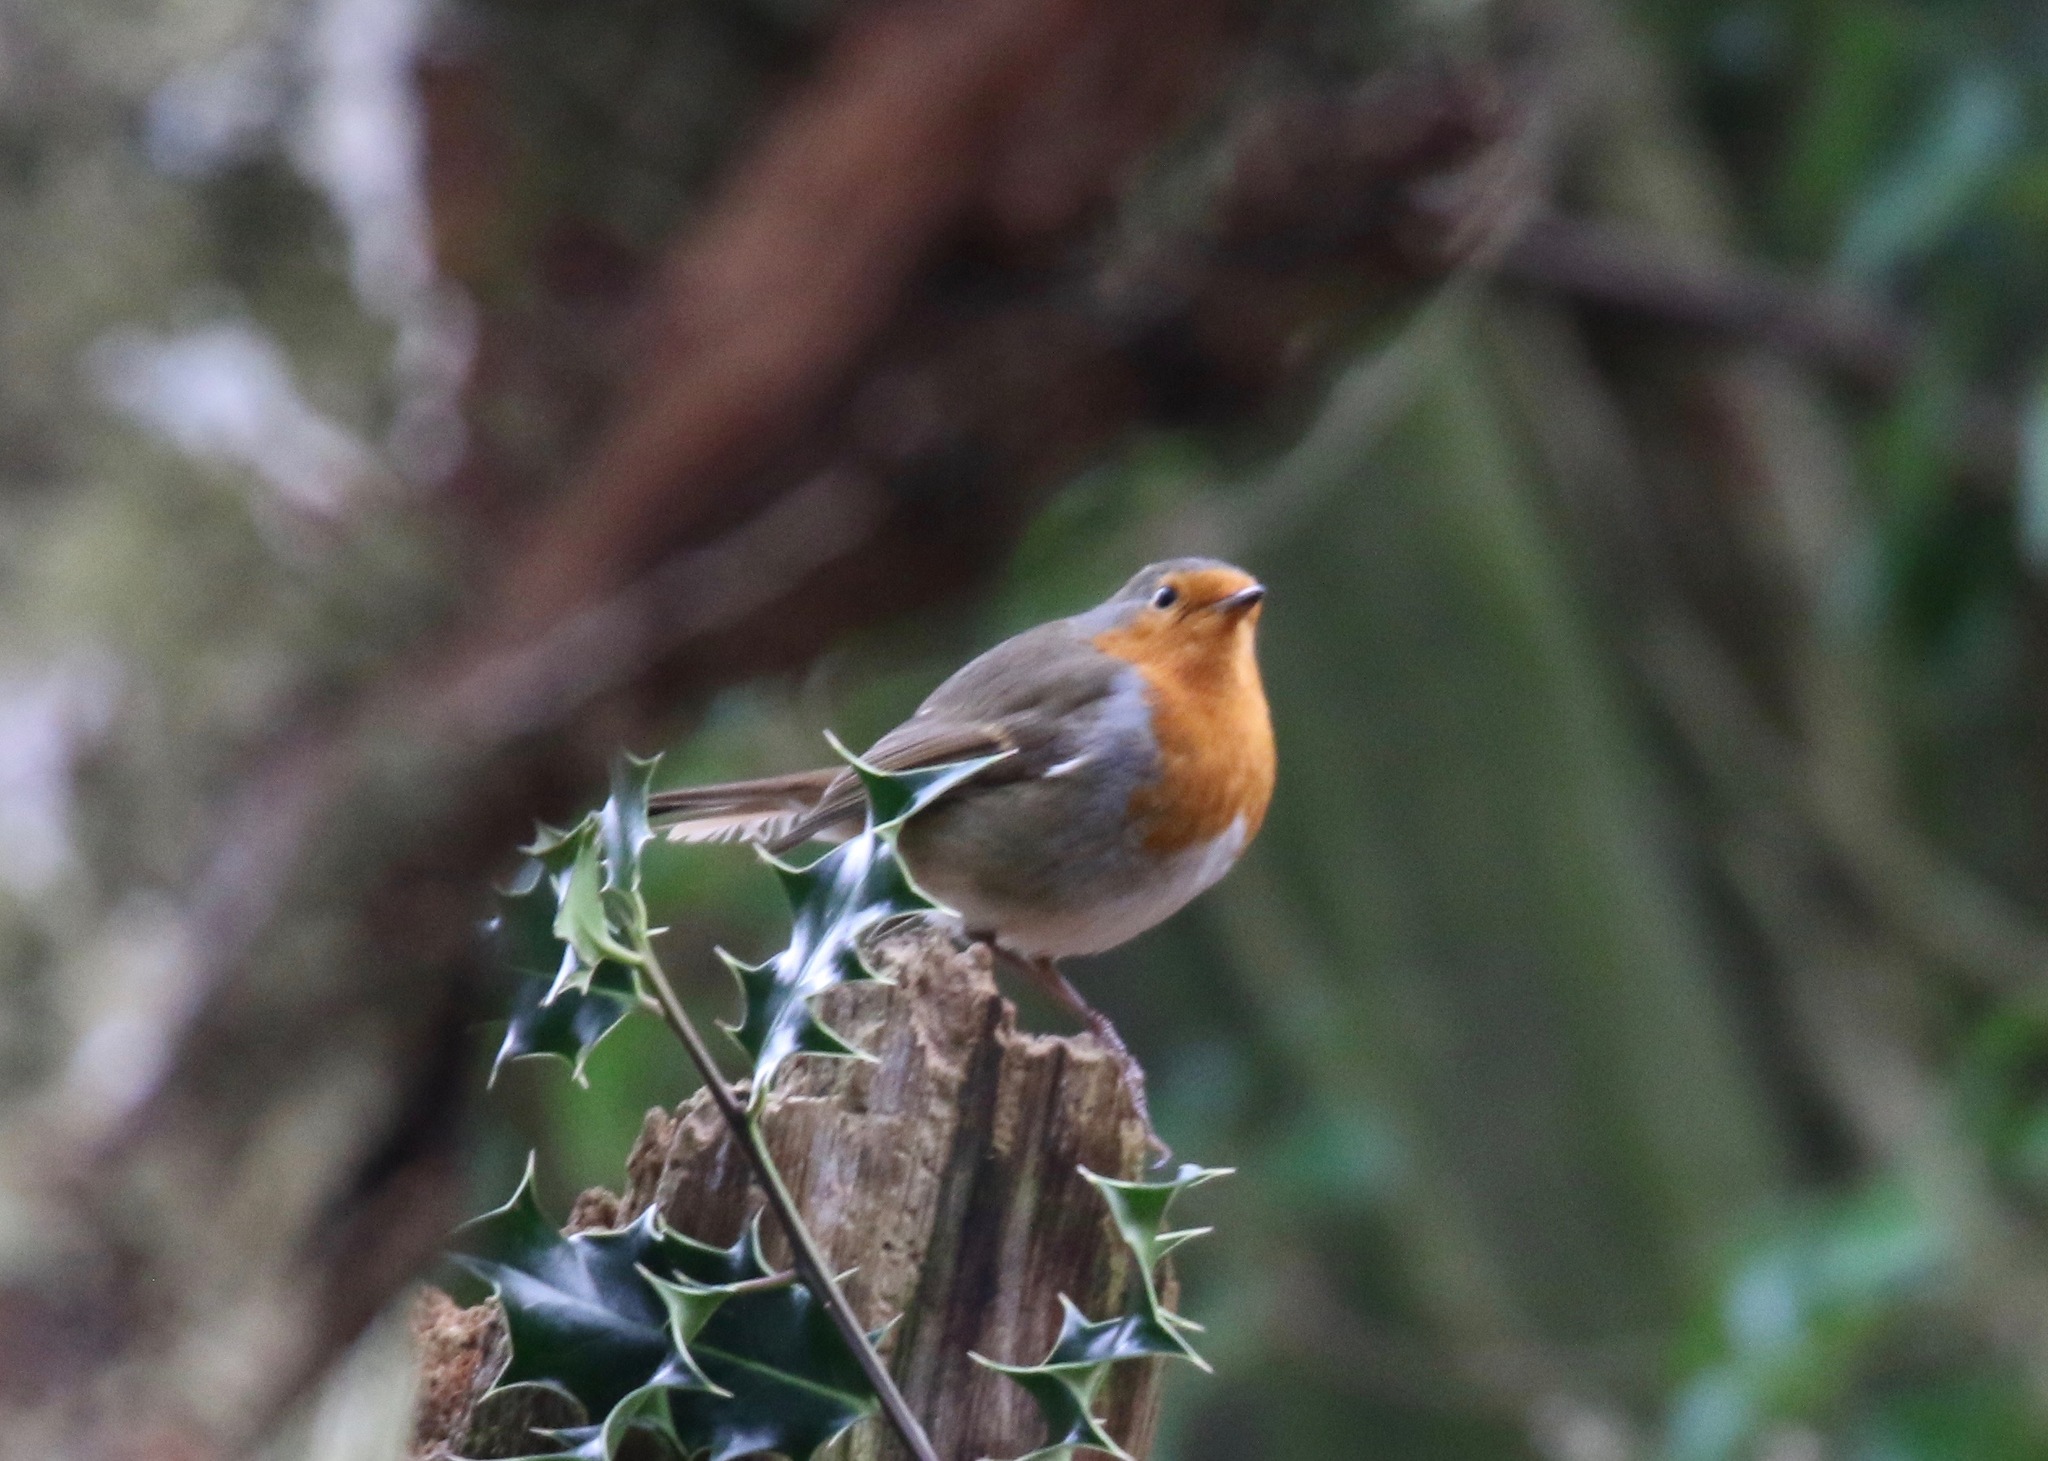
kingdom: Animalia
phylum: Chordata
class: Aves
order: Passeriformes
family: Muscicapidae
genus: Erithacus
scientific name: Erithacus rubecula
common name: European robin
